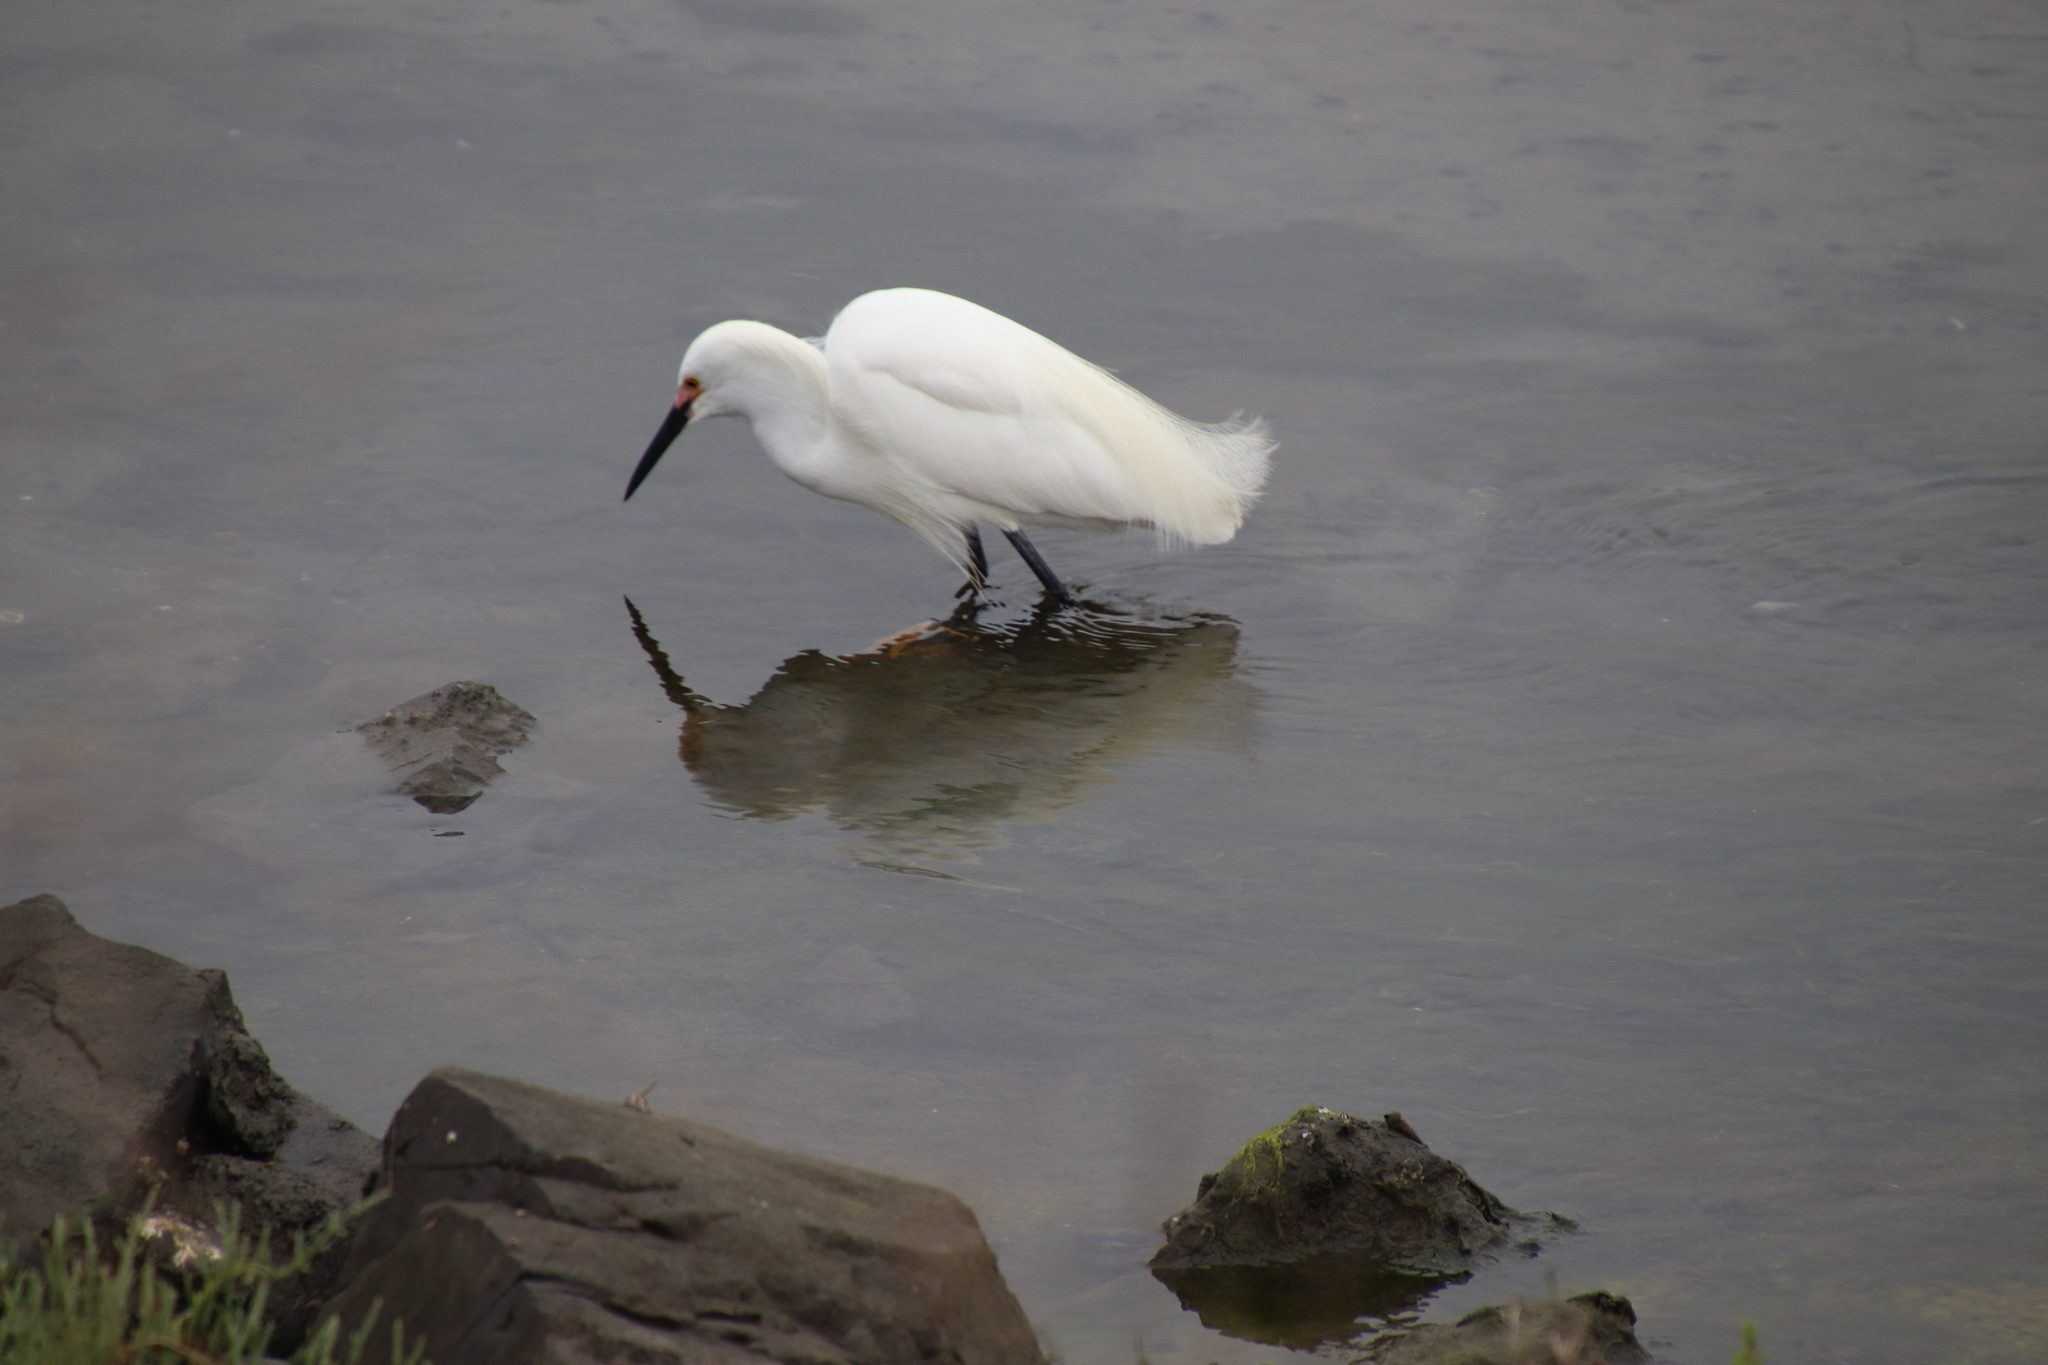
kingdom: Animalia
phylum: Chordata
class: Aves
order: Pelecaniformes
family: Ardeidae
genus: Egretta
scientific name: Egretta thula
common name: Snowy egret
